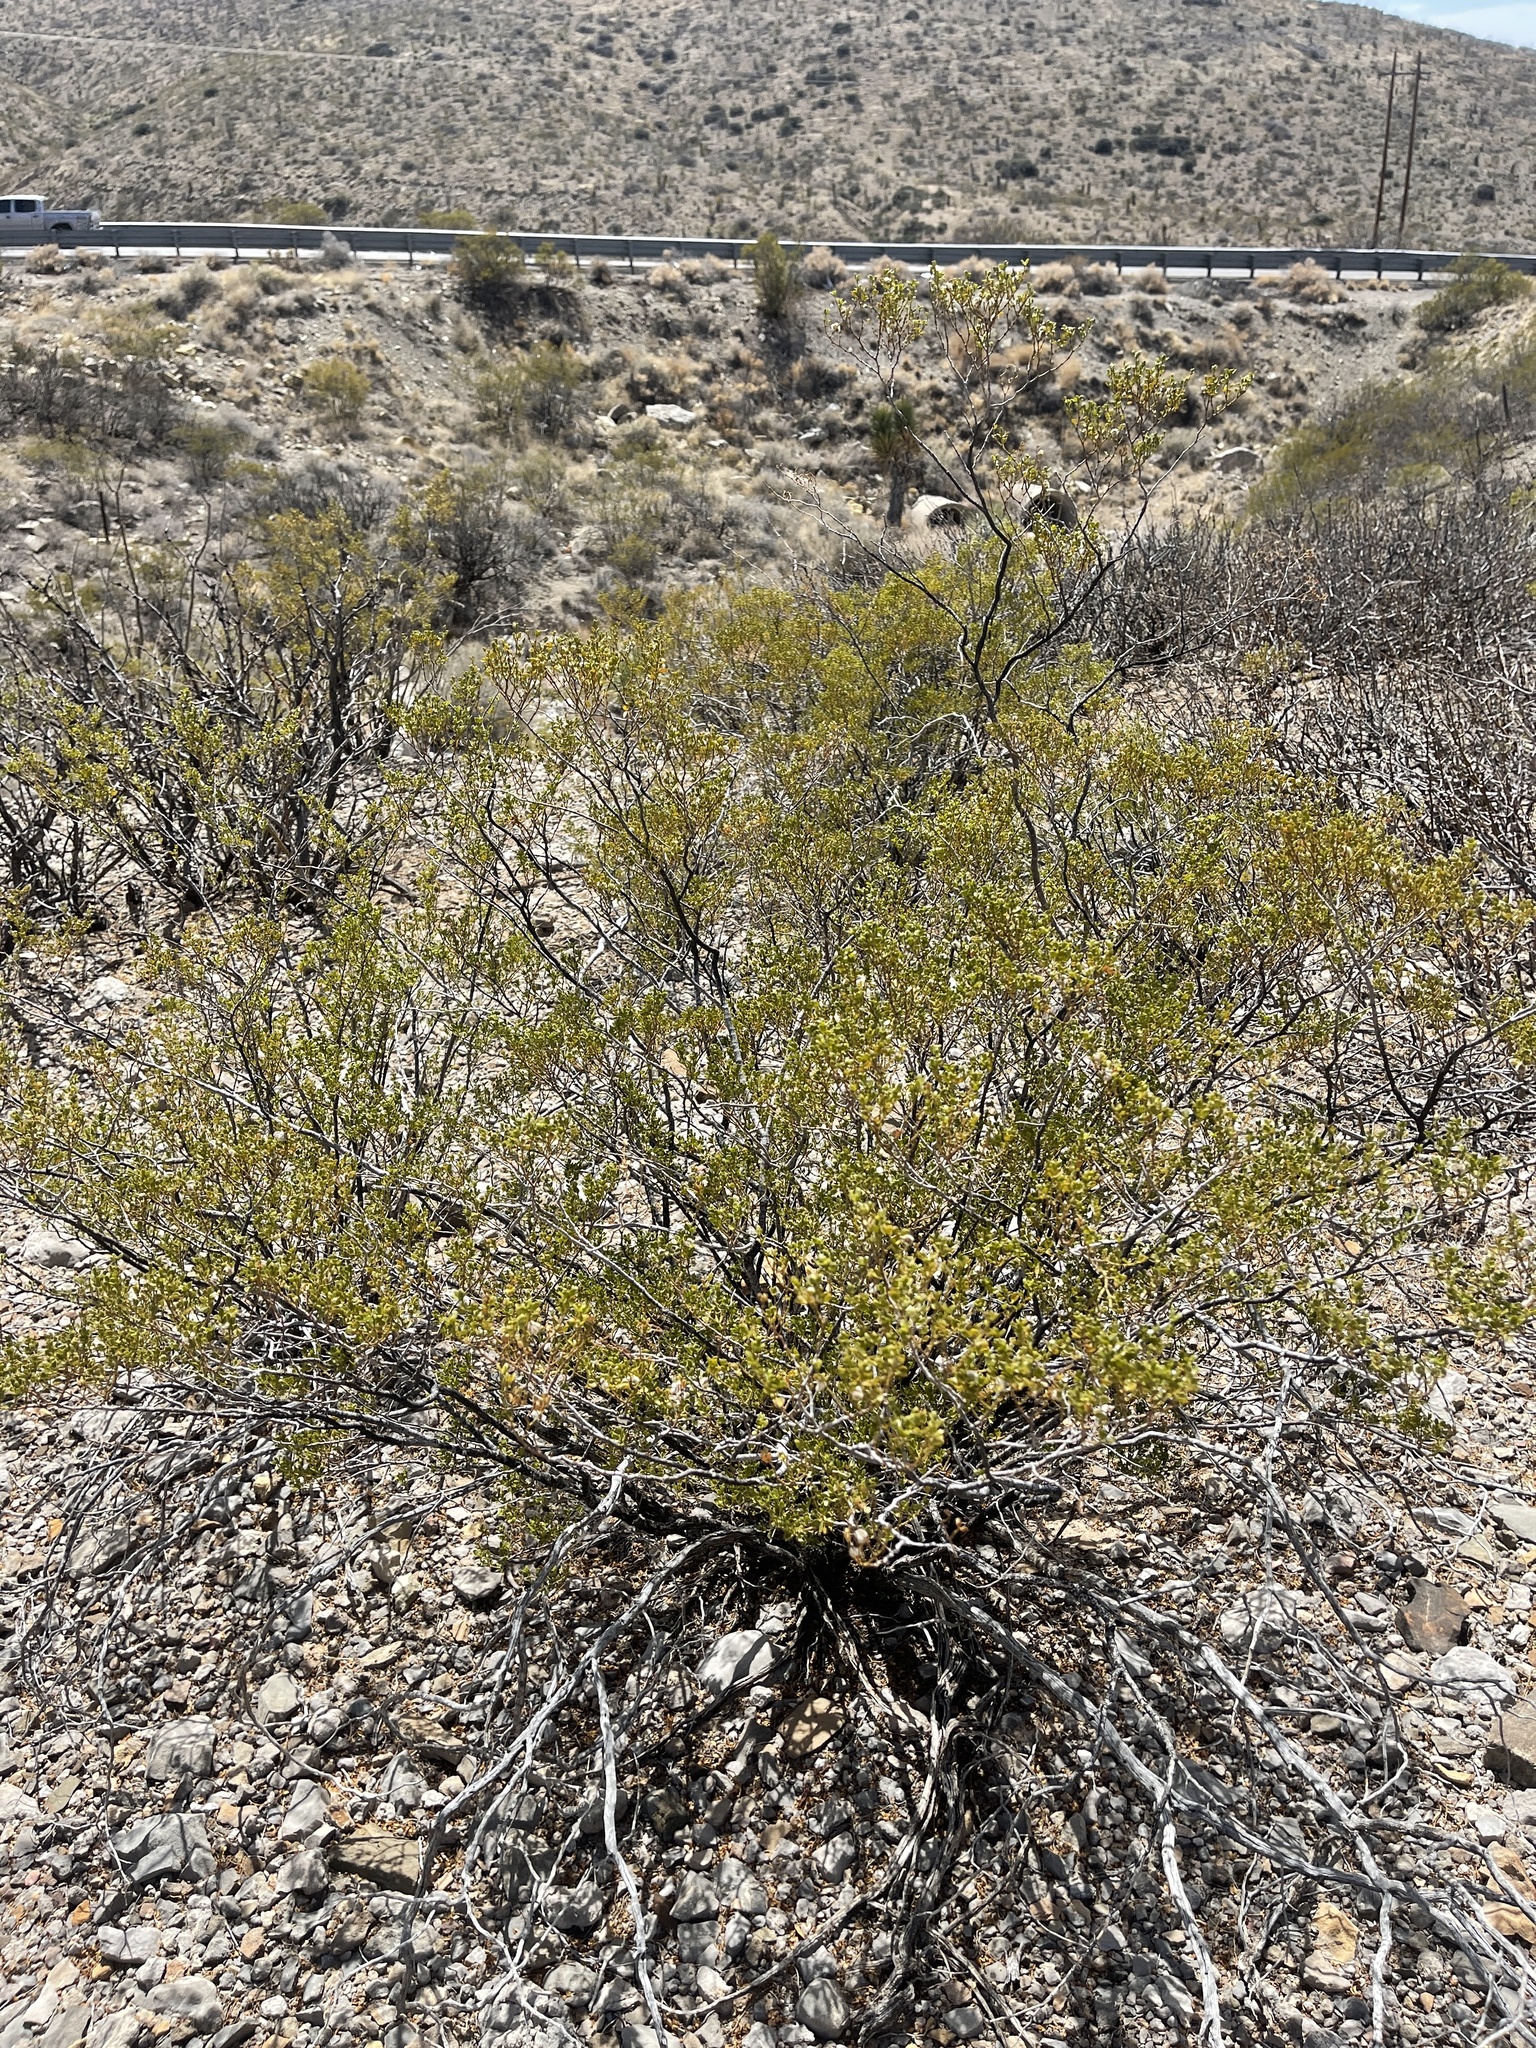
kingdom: Plantae
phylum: Tracheophyta
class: Magnoliopsida
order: Zygophyllales
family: Zygophyllaceae
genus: Larrea
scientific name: Larrea tridentata
